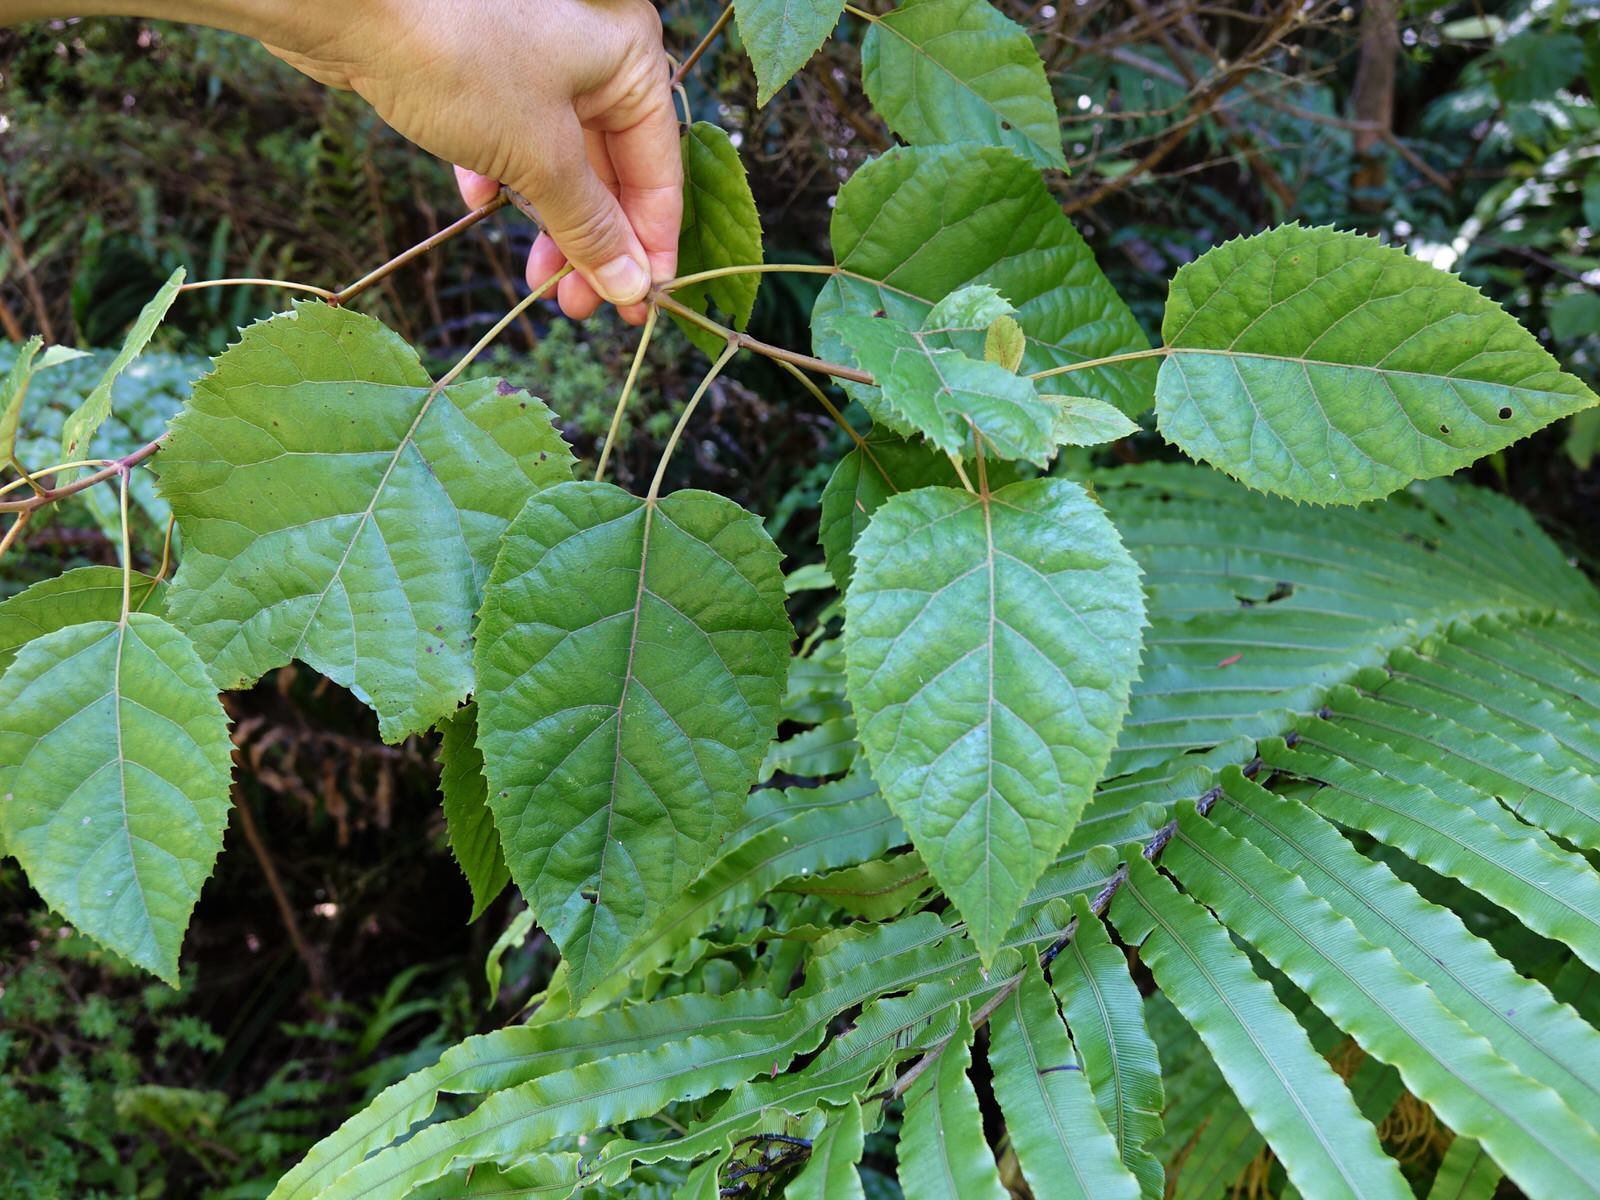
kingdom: Plantae
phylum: Tracheophyta
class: Magnoliopsida
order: Oxalidales
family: Elaeocarpaceae
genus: Aristotelia
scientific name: Aristotelia serrata
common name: New zealand wineberry
